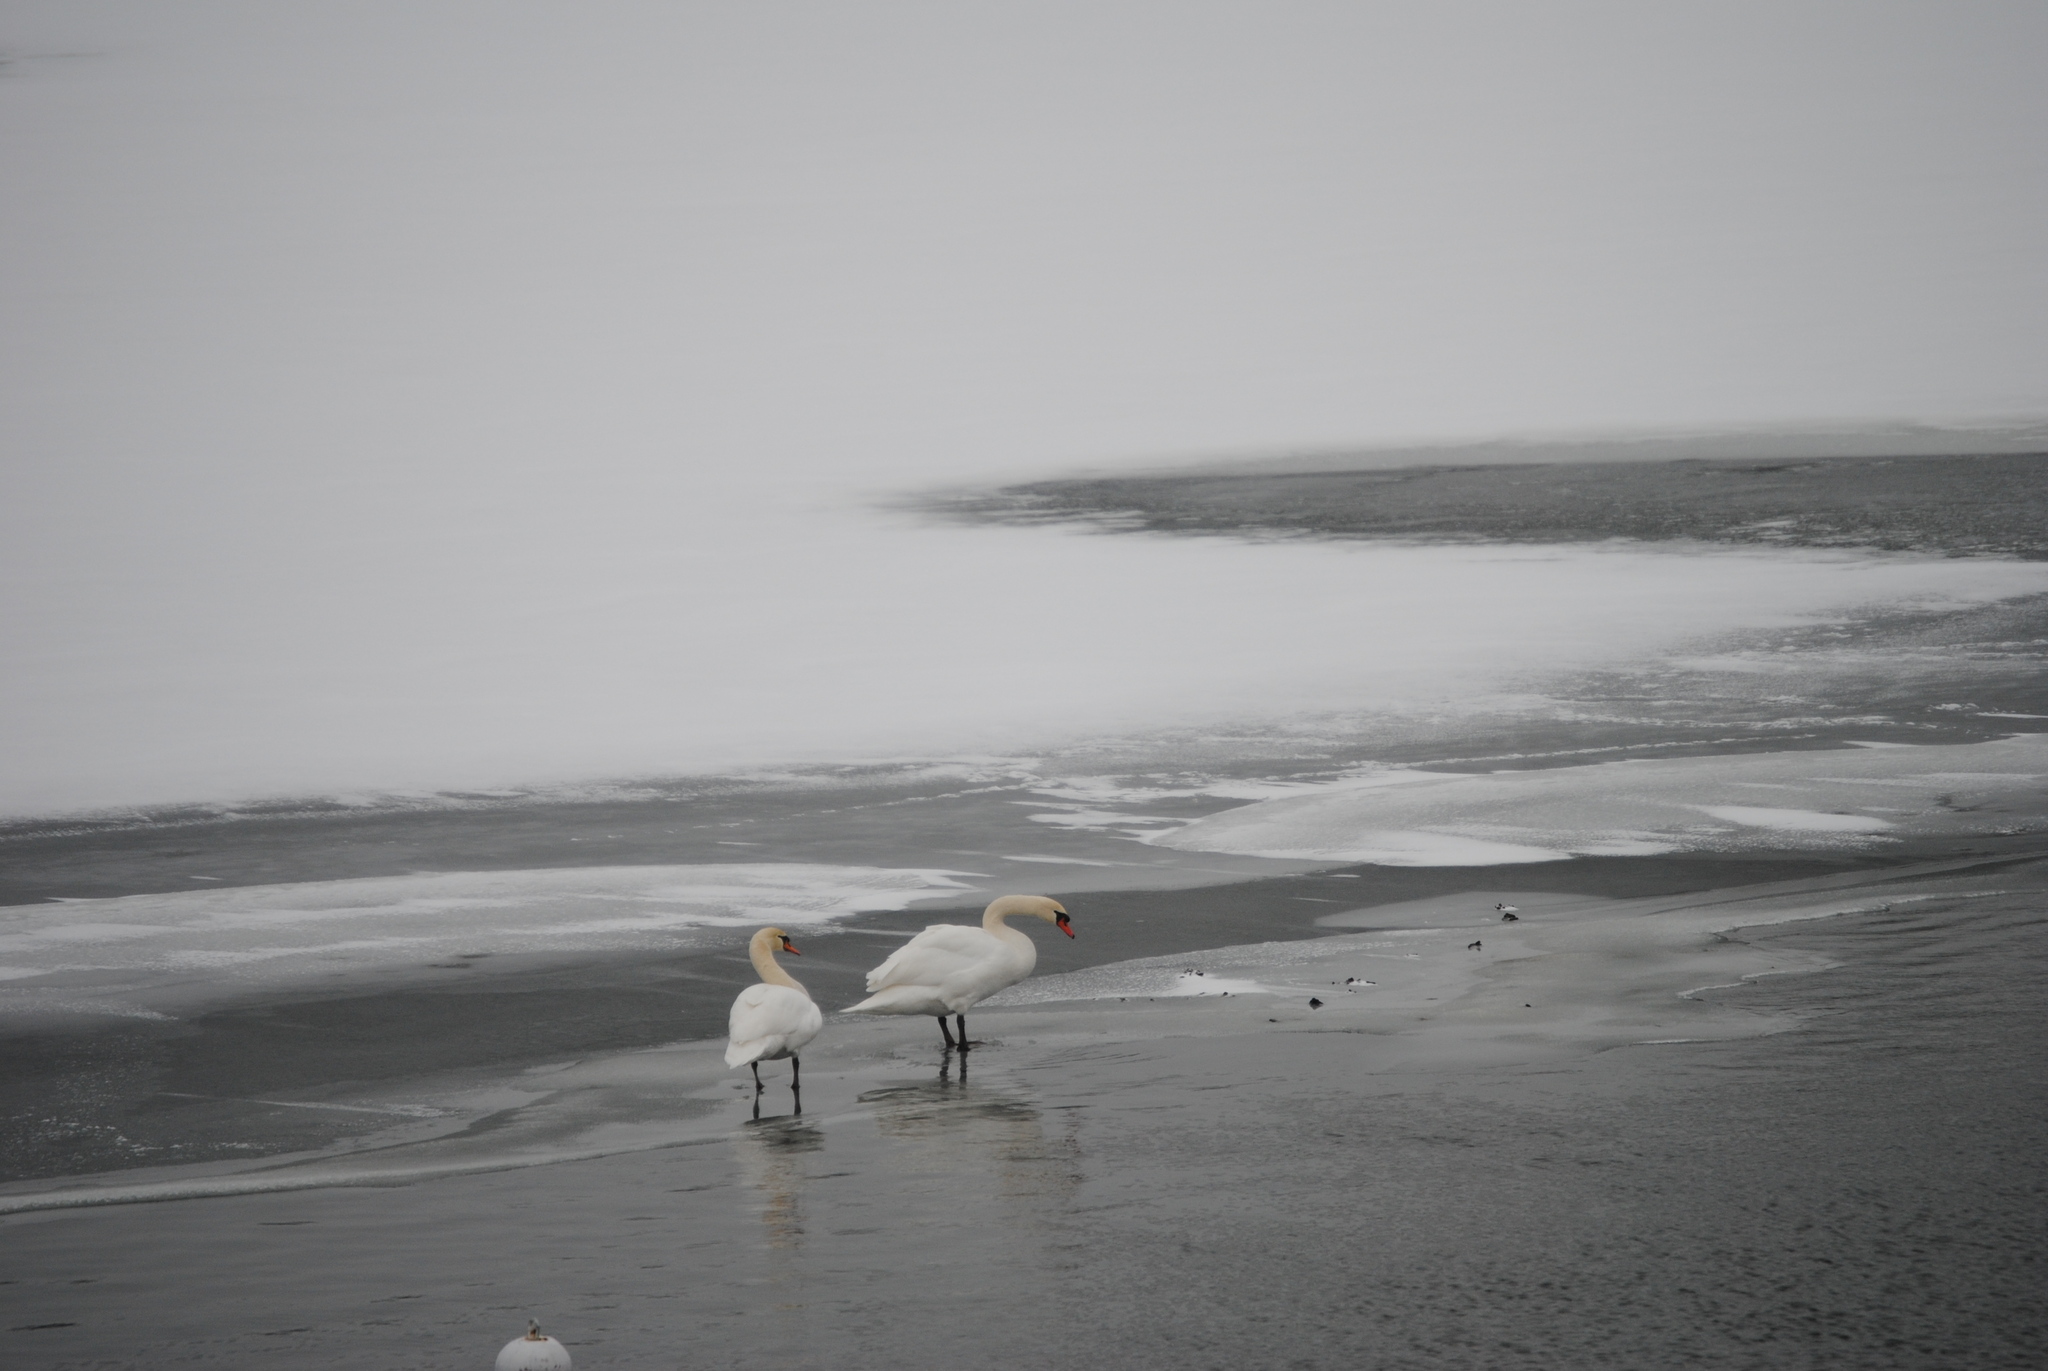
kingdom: Animalia
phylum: Chordata
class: Aves
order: Anseriformes
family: Anatidae
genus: Cygnus
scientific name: Cygnus olor
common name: Mute swan
